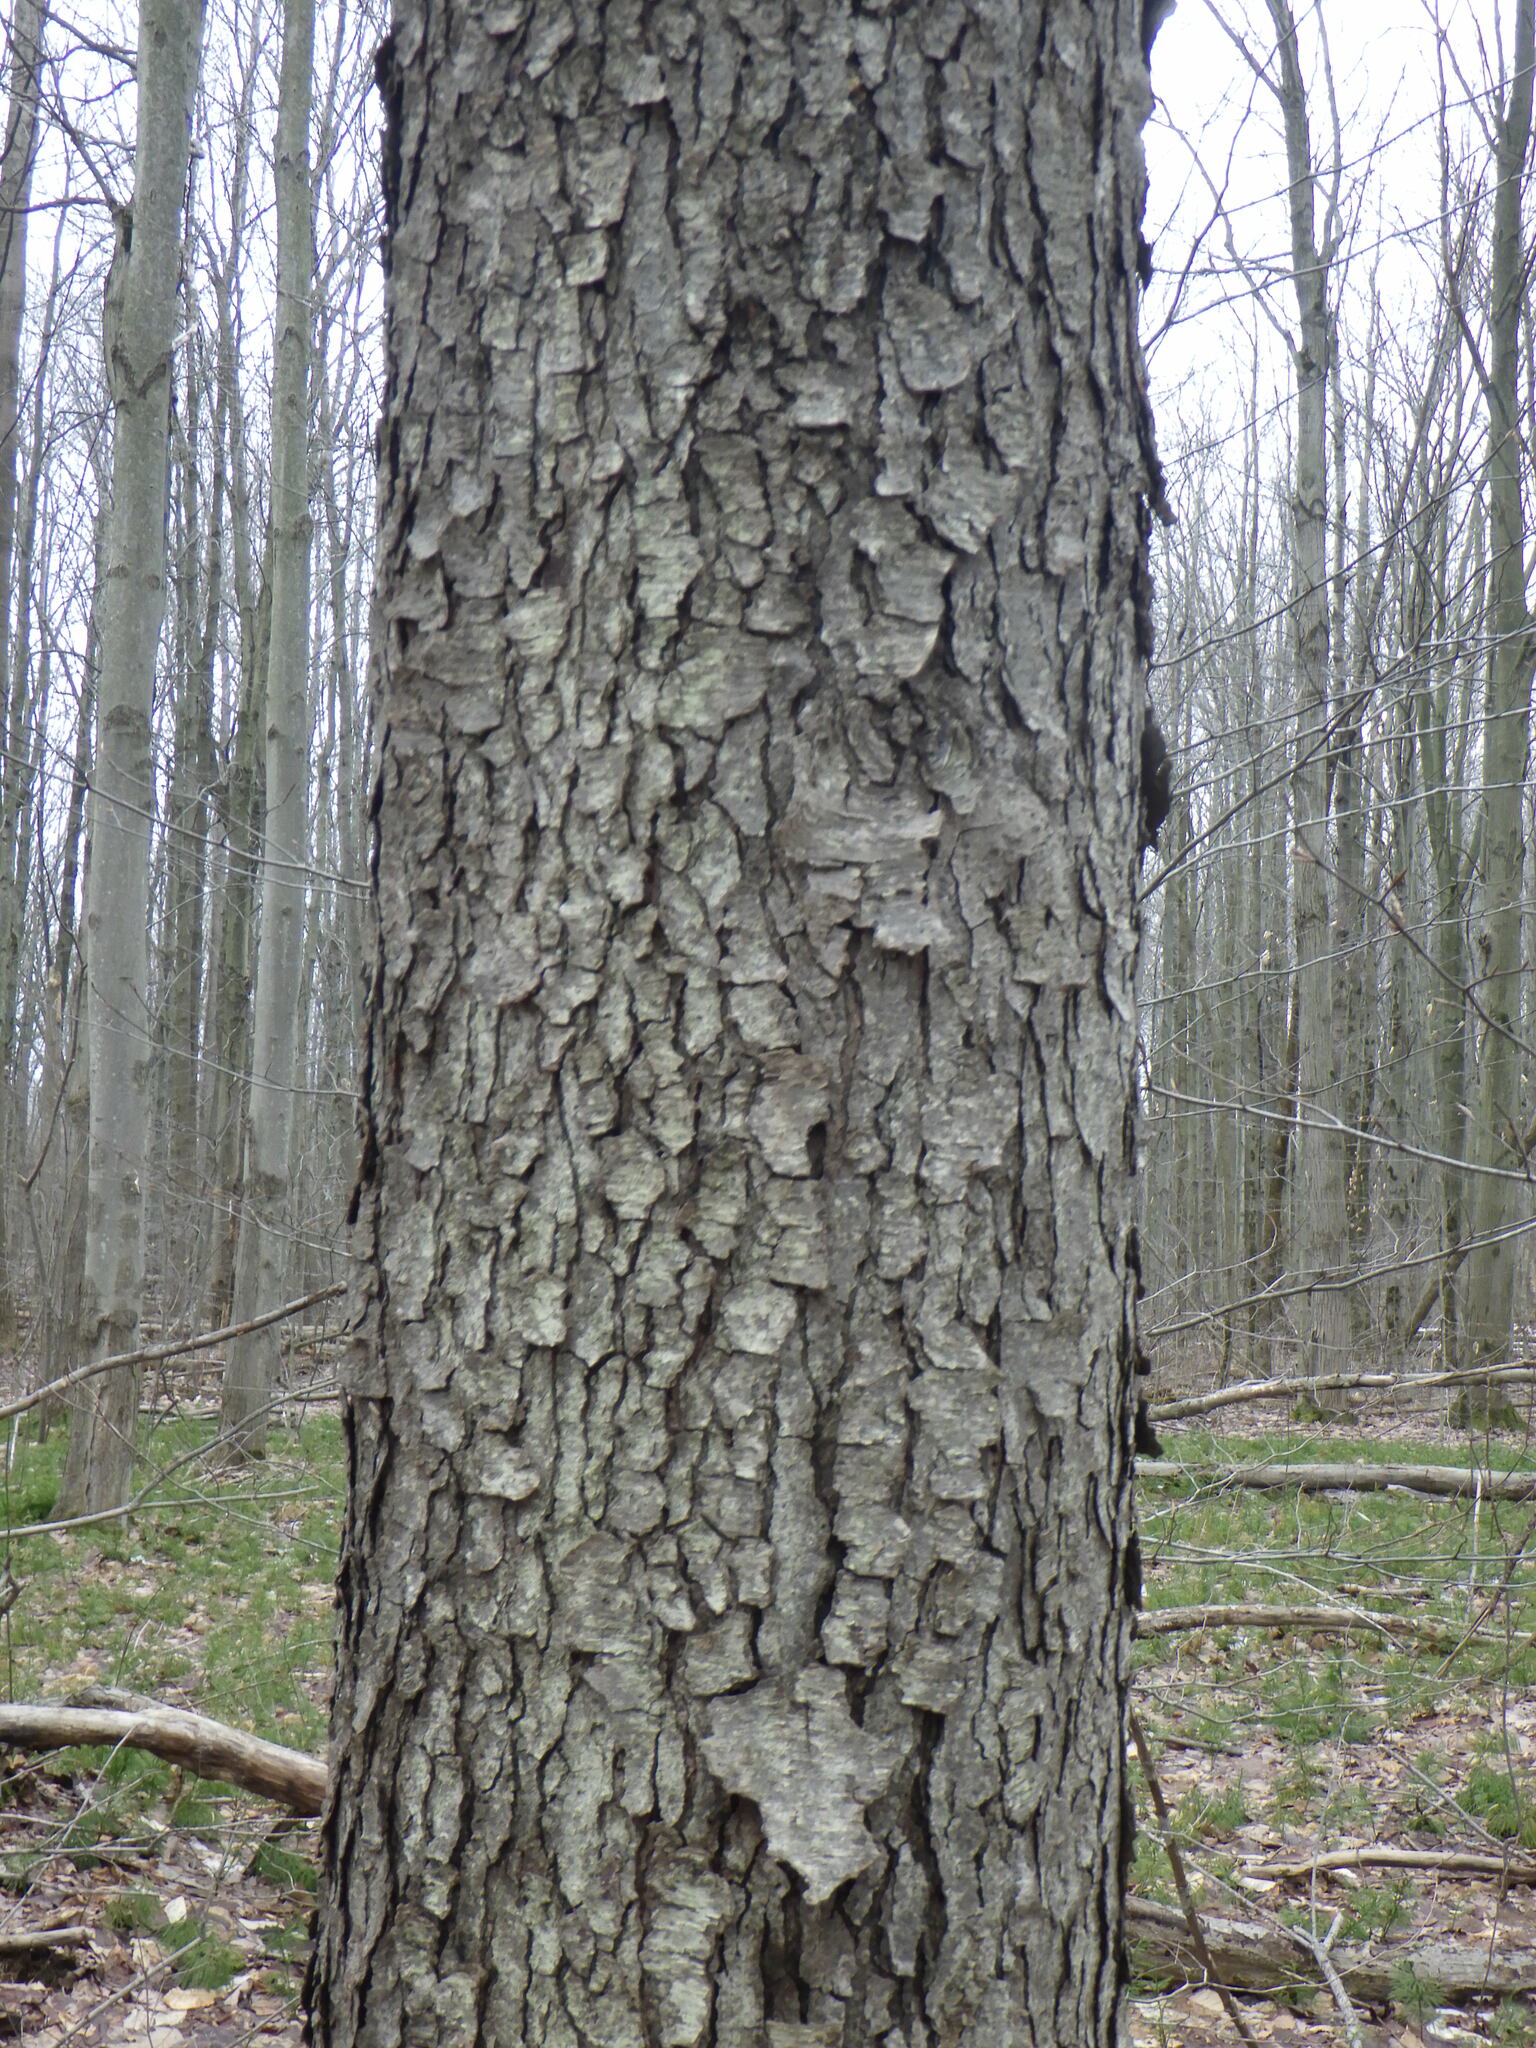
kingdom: Plantae
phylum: Tracheophyta
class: Magnoliopsida
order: Rosales
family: Rosaceae
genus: Prunus
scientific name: Prunus serotina
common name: Black cherry
